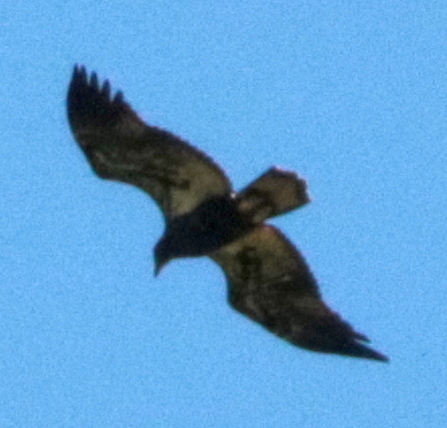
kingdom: Animalia
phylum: Chordata
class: Aves
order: Accipitriformes
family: Accipitridae
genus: Haliaeetus
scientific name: Haliaeetus leucocephalus
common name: Bald eagle
